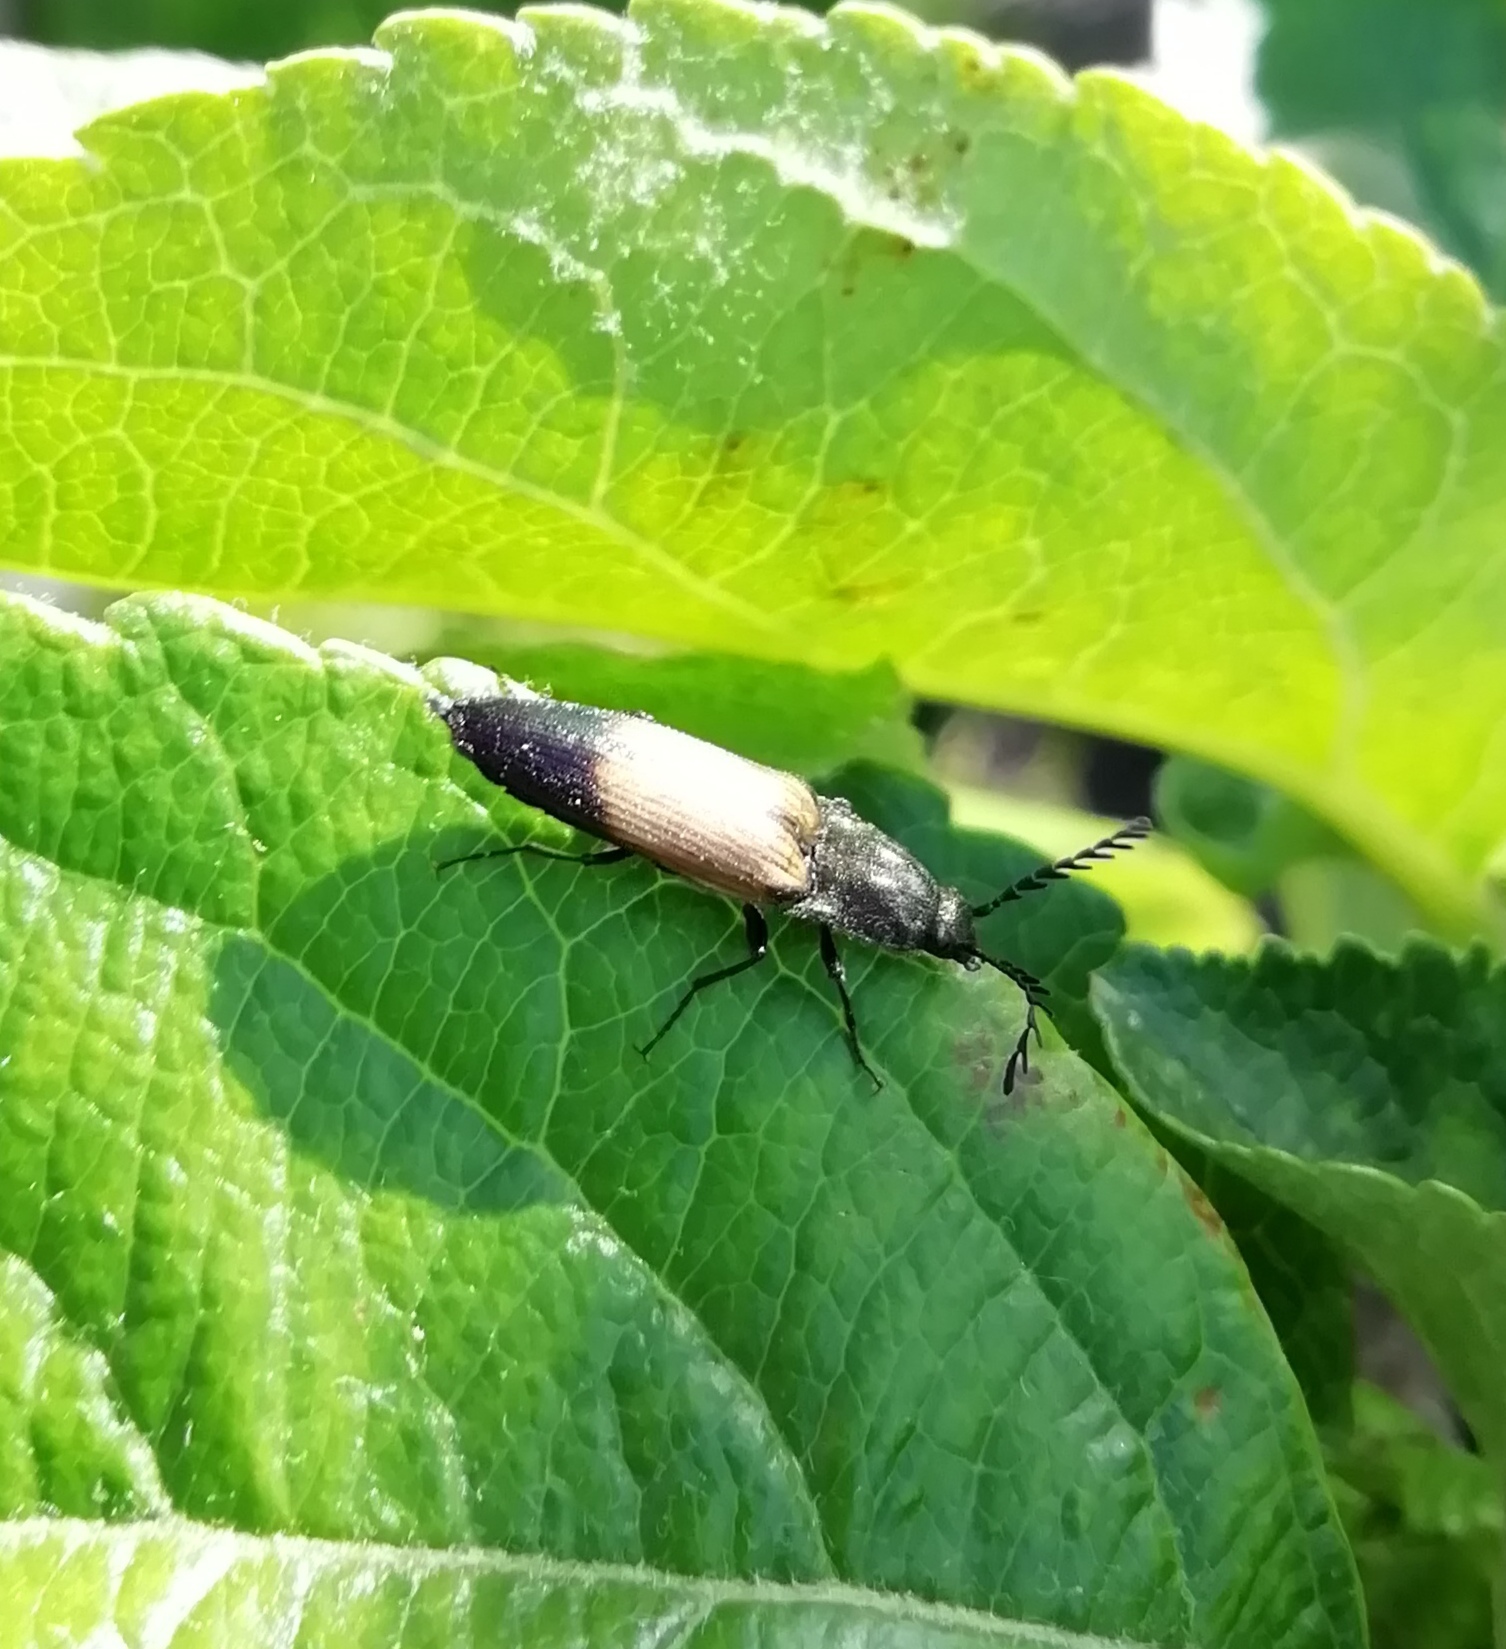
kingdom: Animalia
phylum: Arthropoda
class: Insecta
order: Coleoptera
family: Elateridae
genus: Ctenicera
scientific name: Ctenicera cuprea
